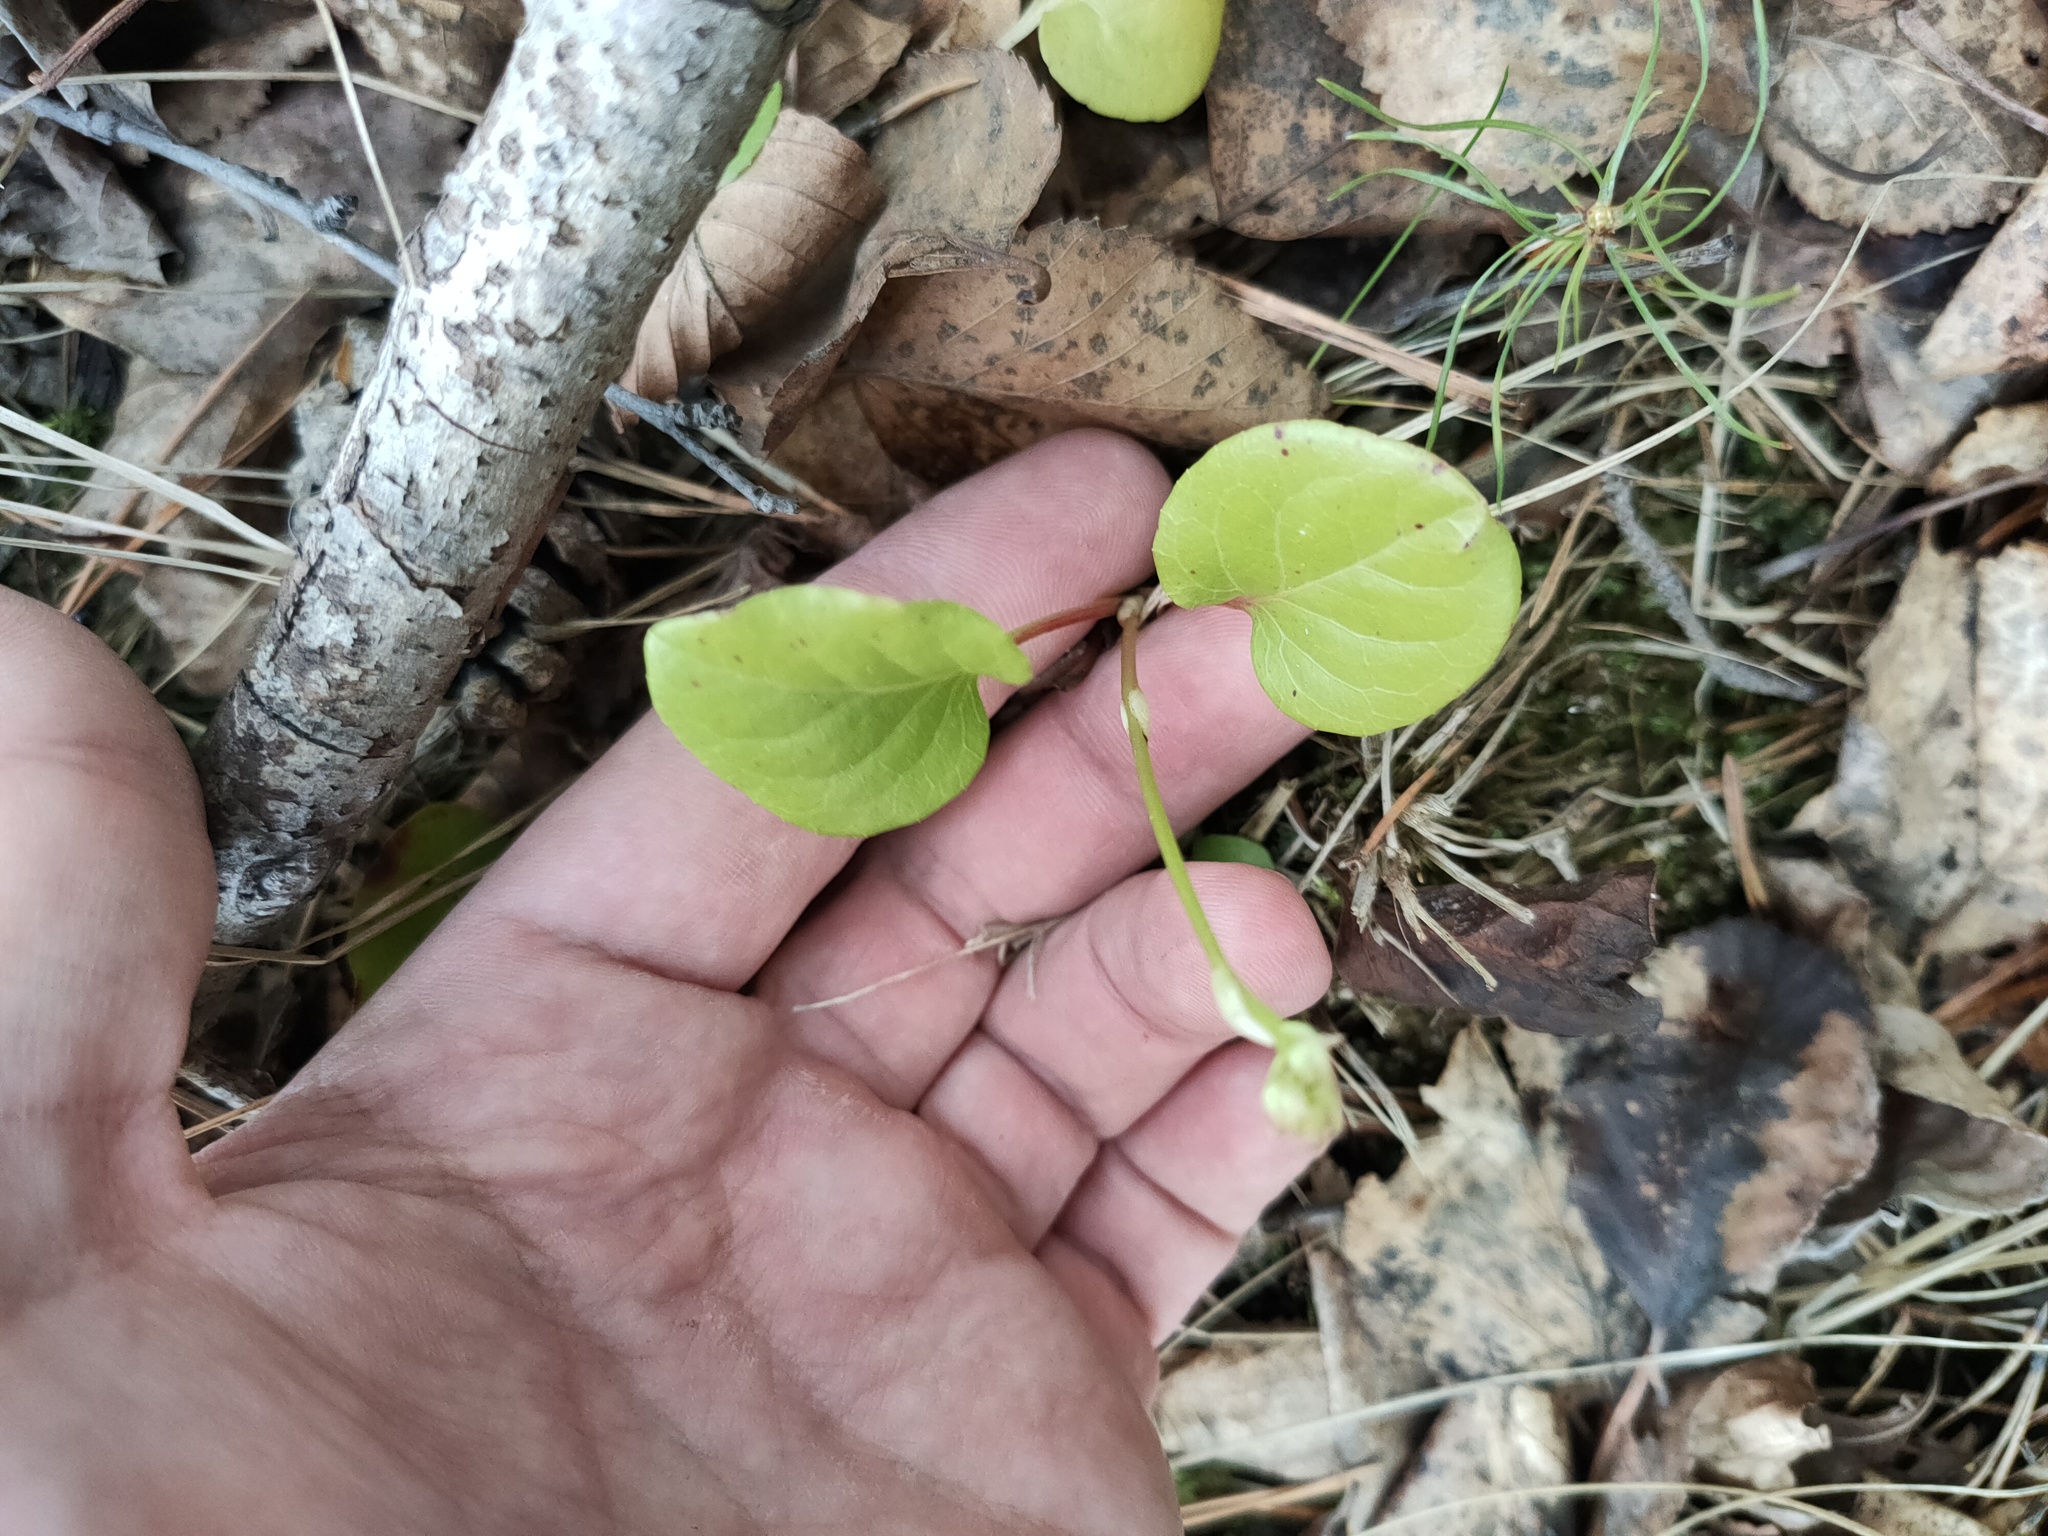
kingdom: Plantae
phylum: Tracheophyta
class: Magnoliopsida
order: Ericales
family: Ericaceae
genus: Pyrola
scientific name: Pyrola
